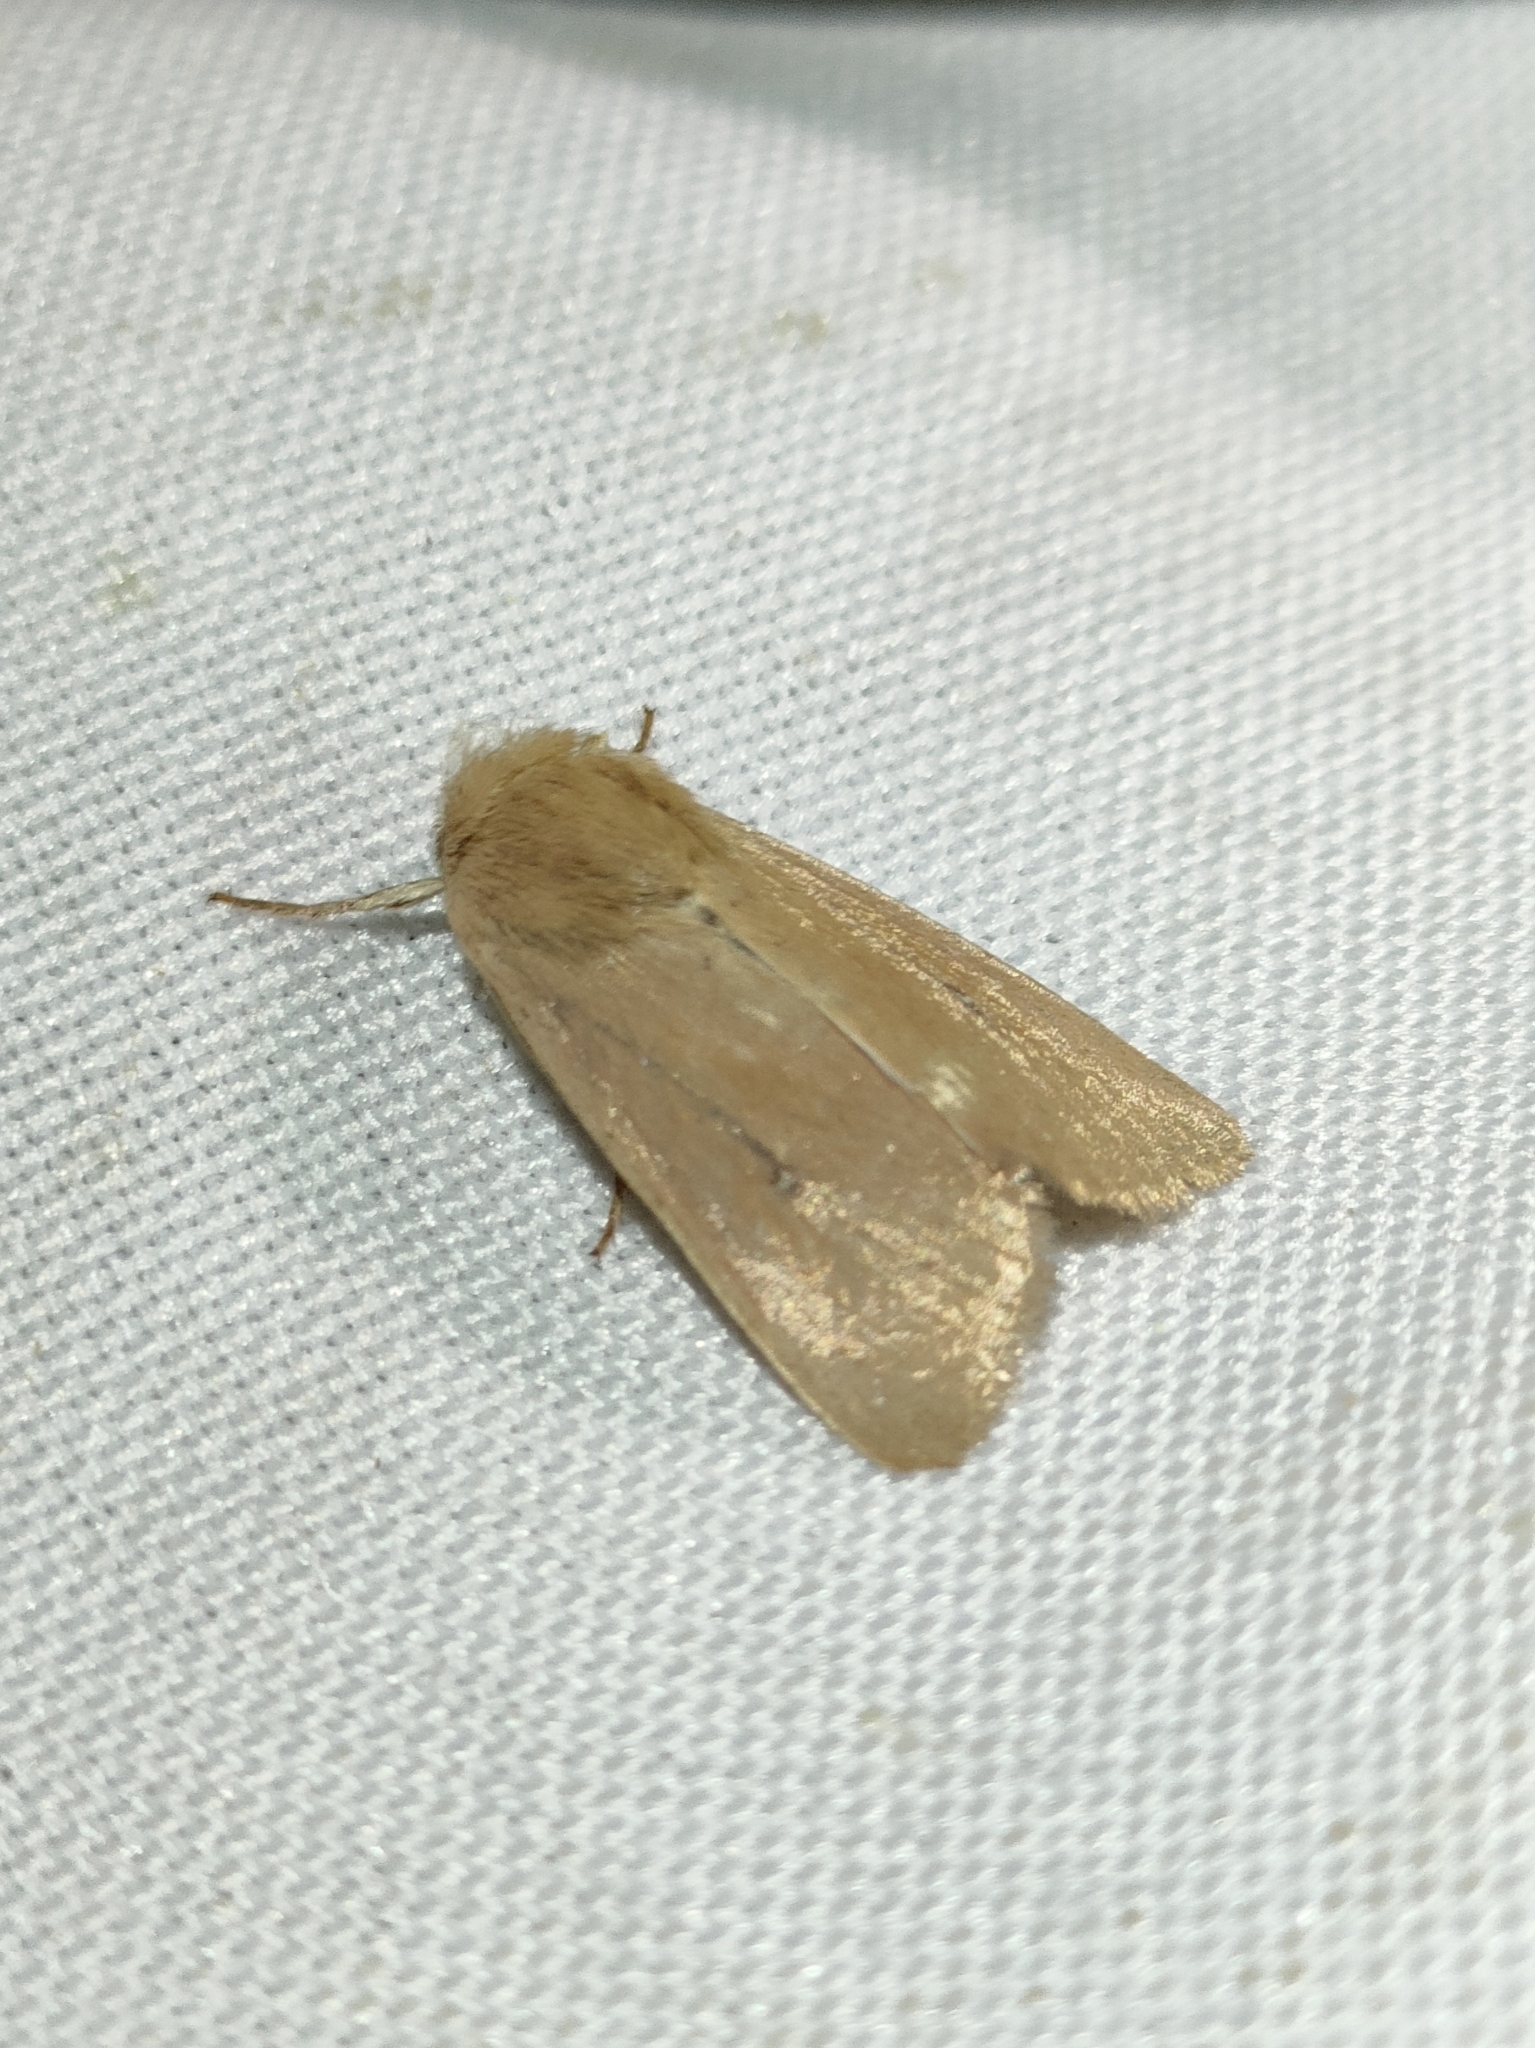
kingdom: Animalia
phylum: Arthropoda
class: Insecta
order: Lepidoptera
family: Noctuidae
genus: Mythimna
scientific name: Mythimna sicula
